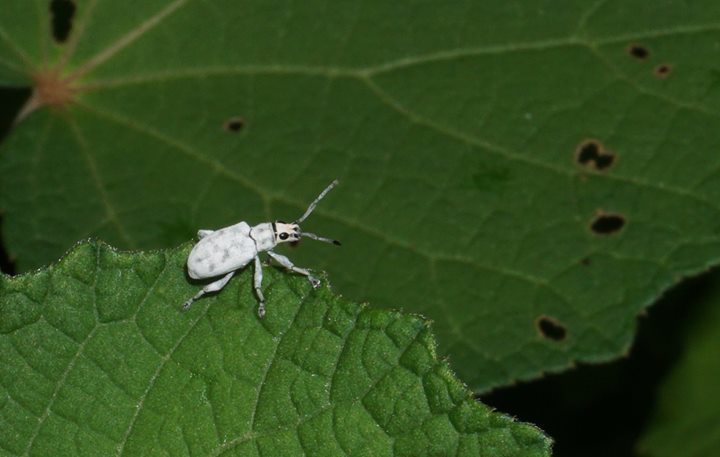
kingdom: Animalia
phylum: Arthropoda
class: Insecta
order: Coleoptera
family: Curculionidae
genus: Myllocerus
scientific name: Myllocerus undecimpustulatus
